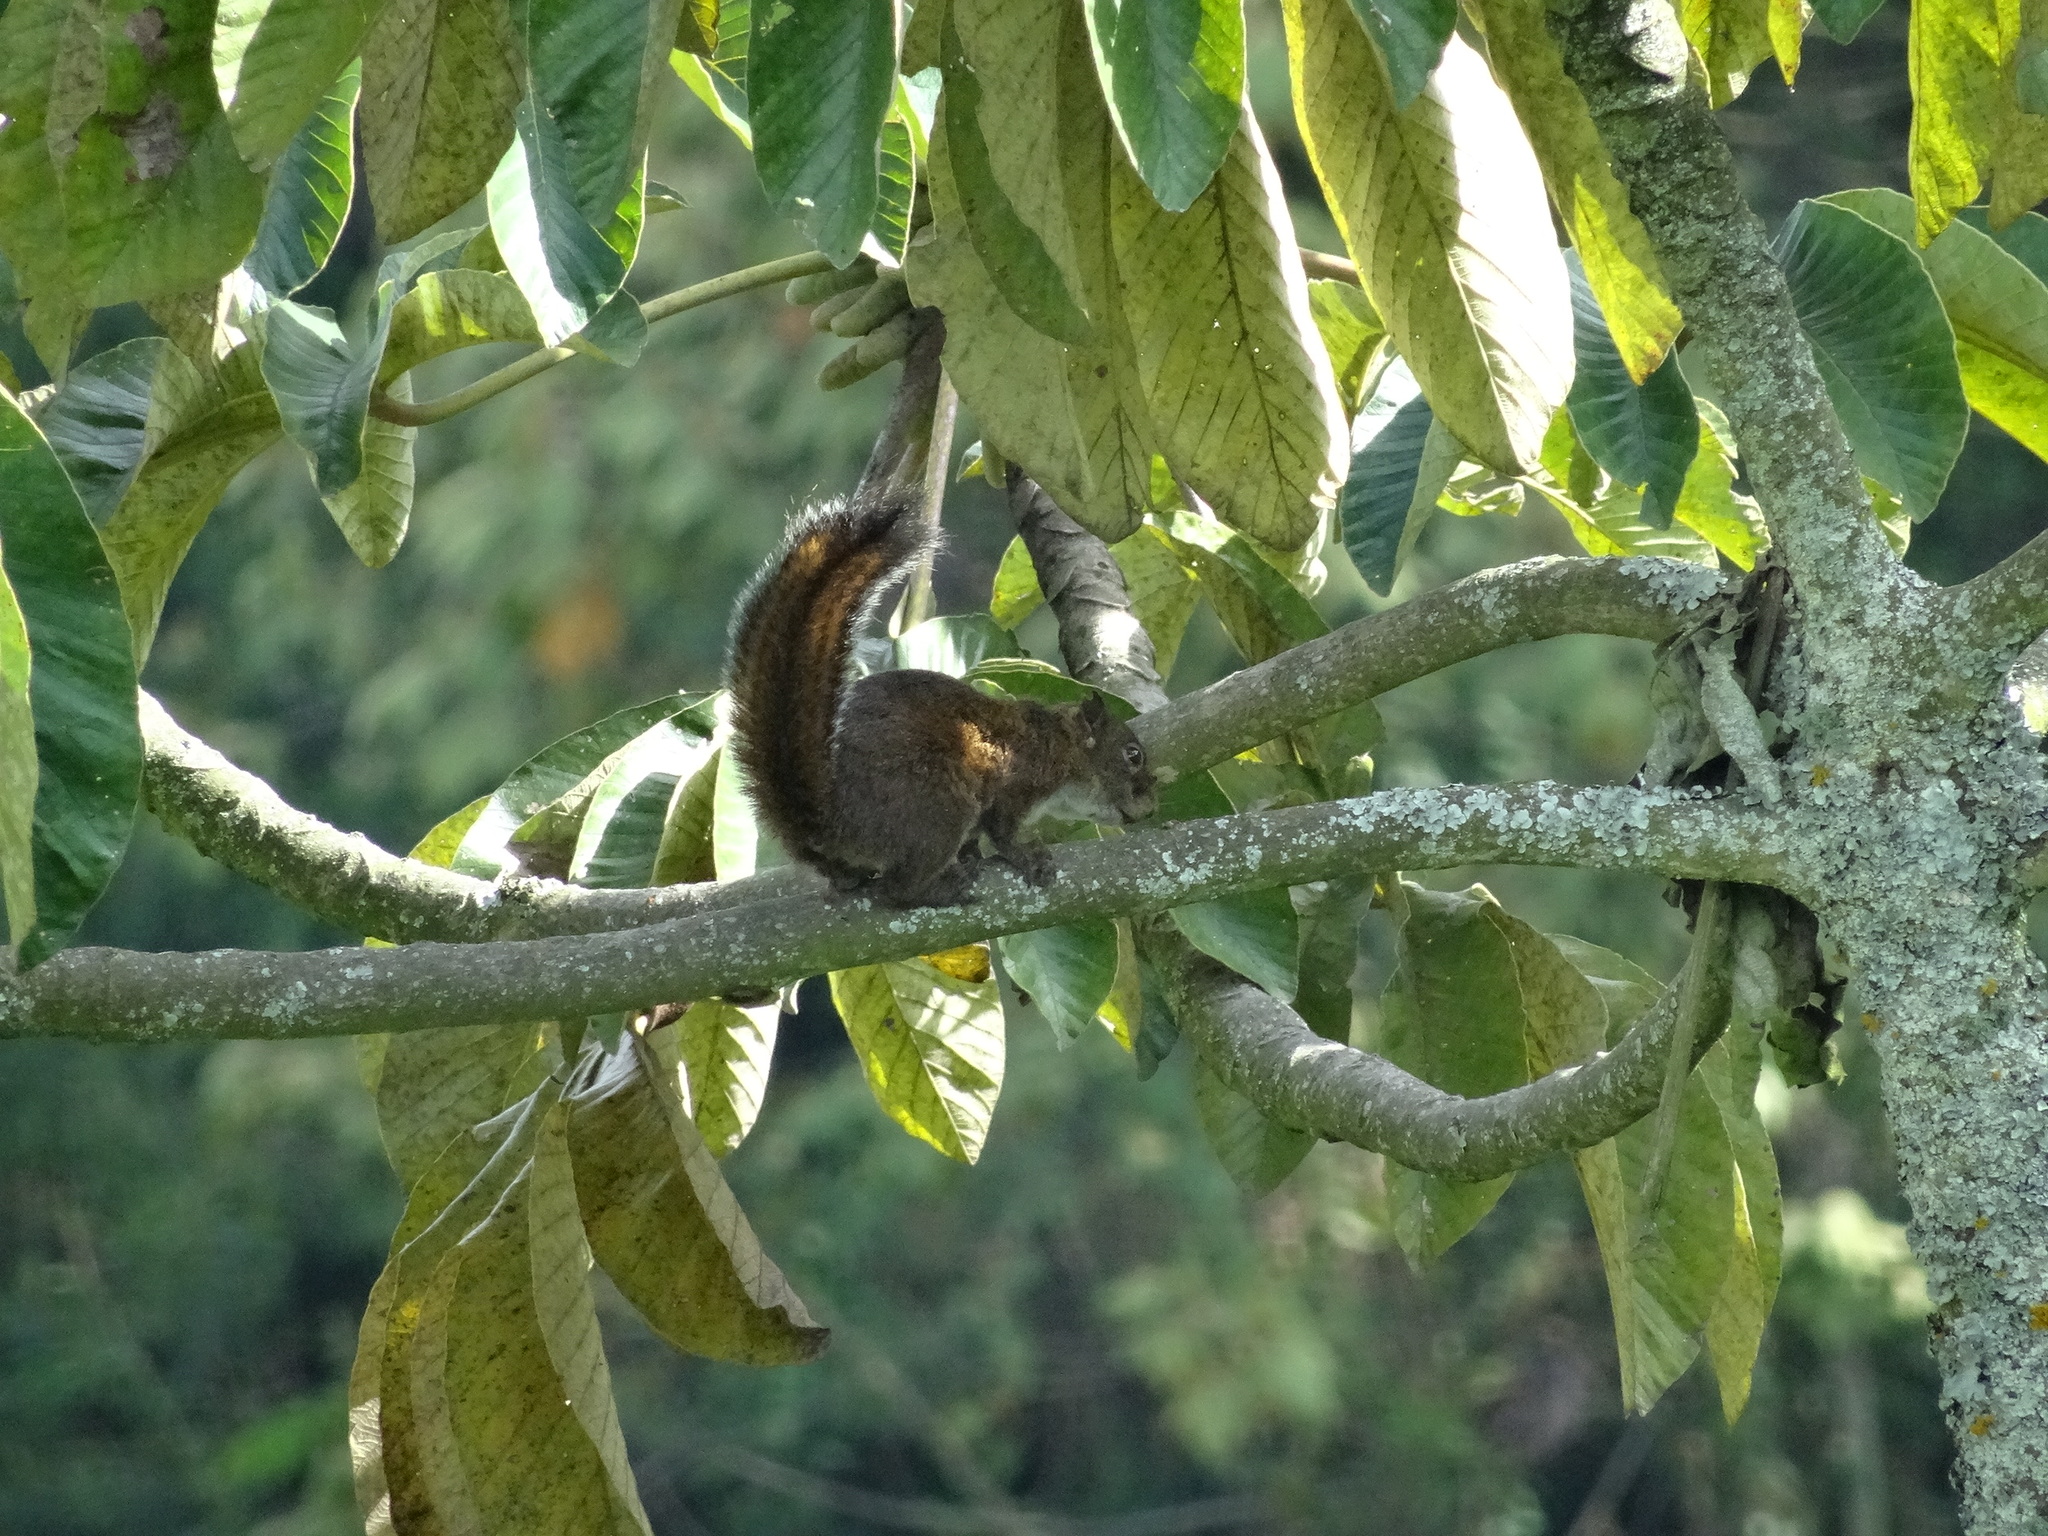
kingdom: Animalia
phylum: Chordata
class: Mammalia
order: Rodentia
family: Sciuridae
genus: Sciurus
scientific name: Sciurus pucheranii
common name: Andean squirrel
